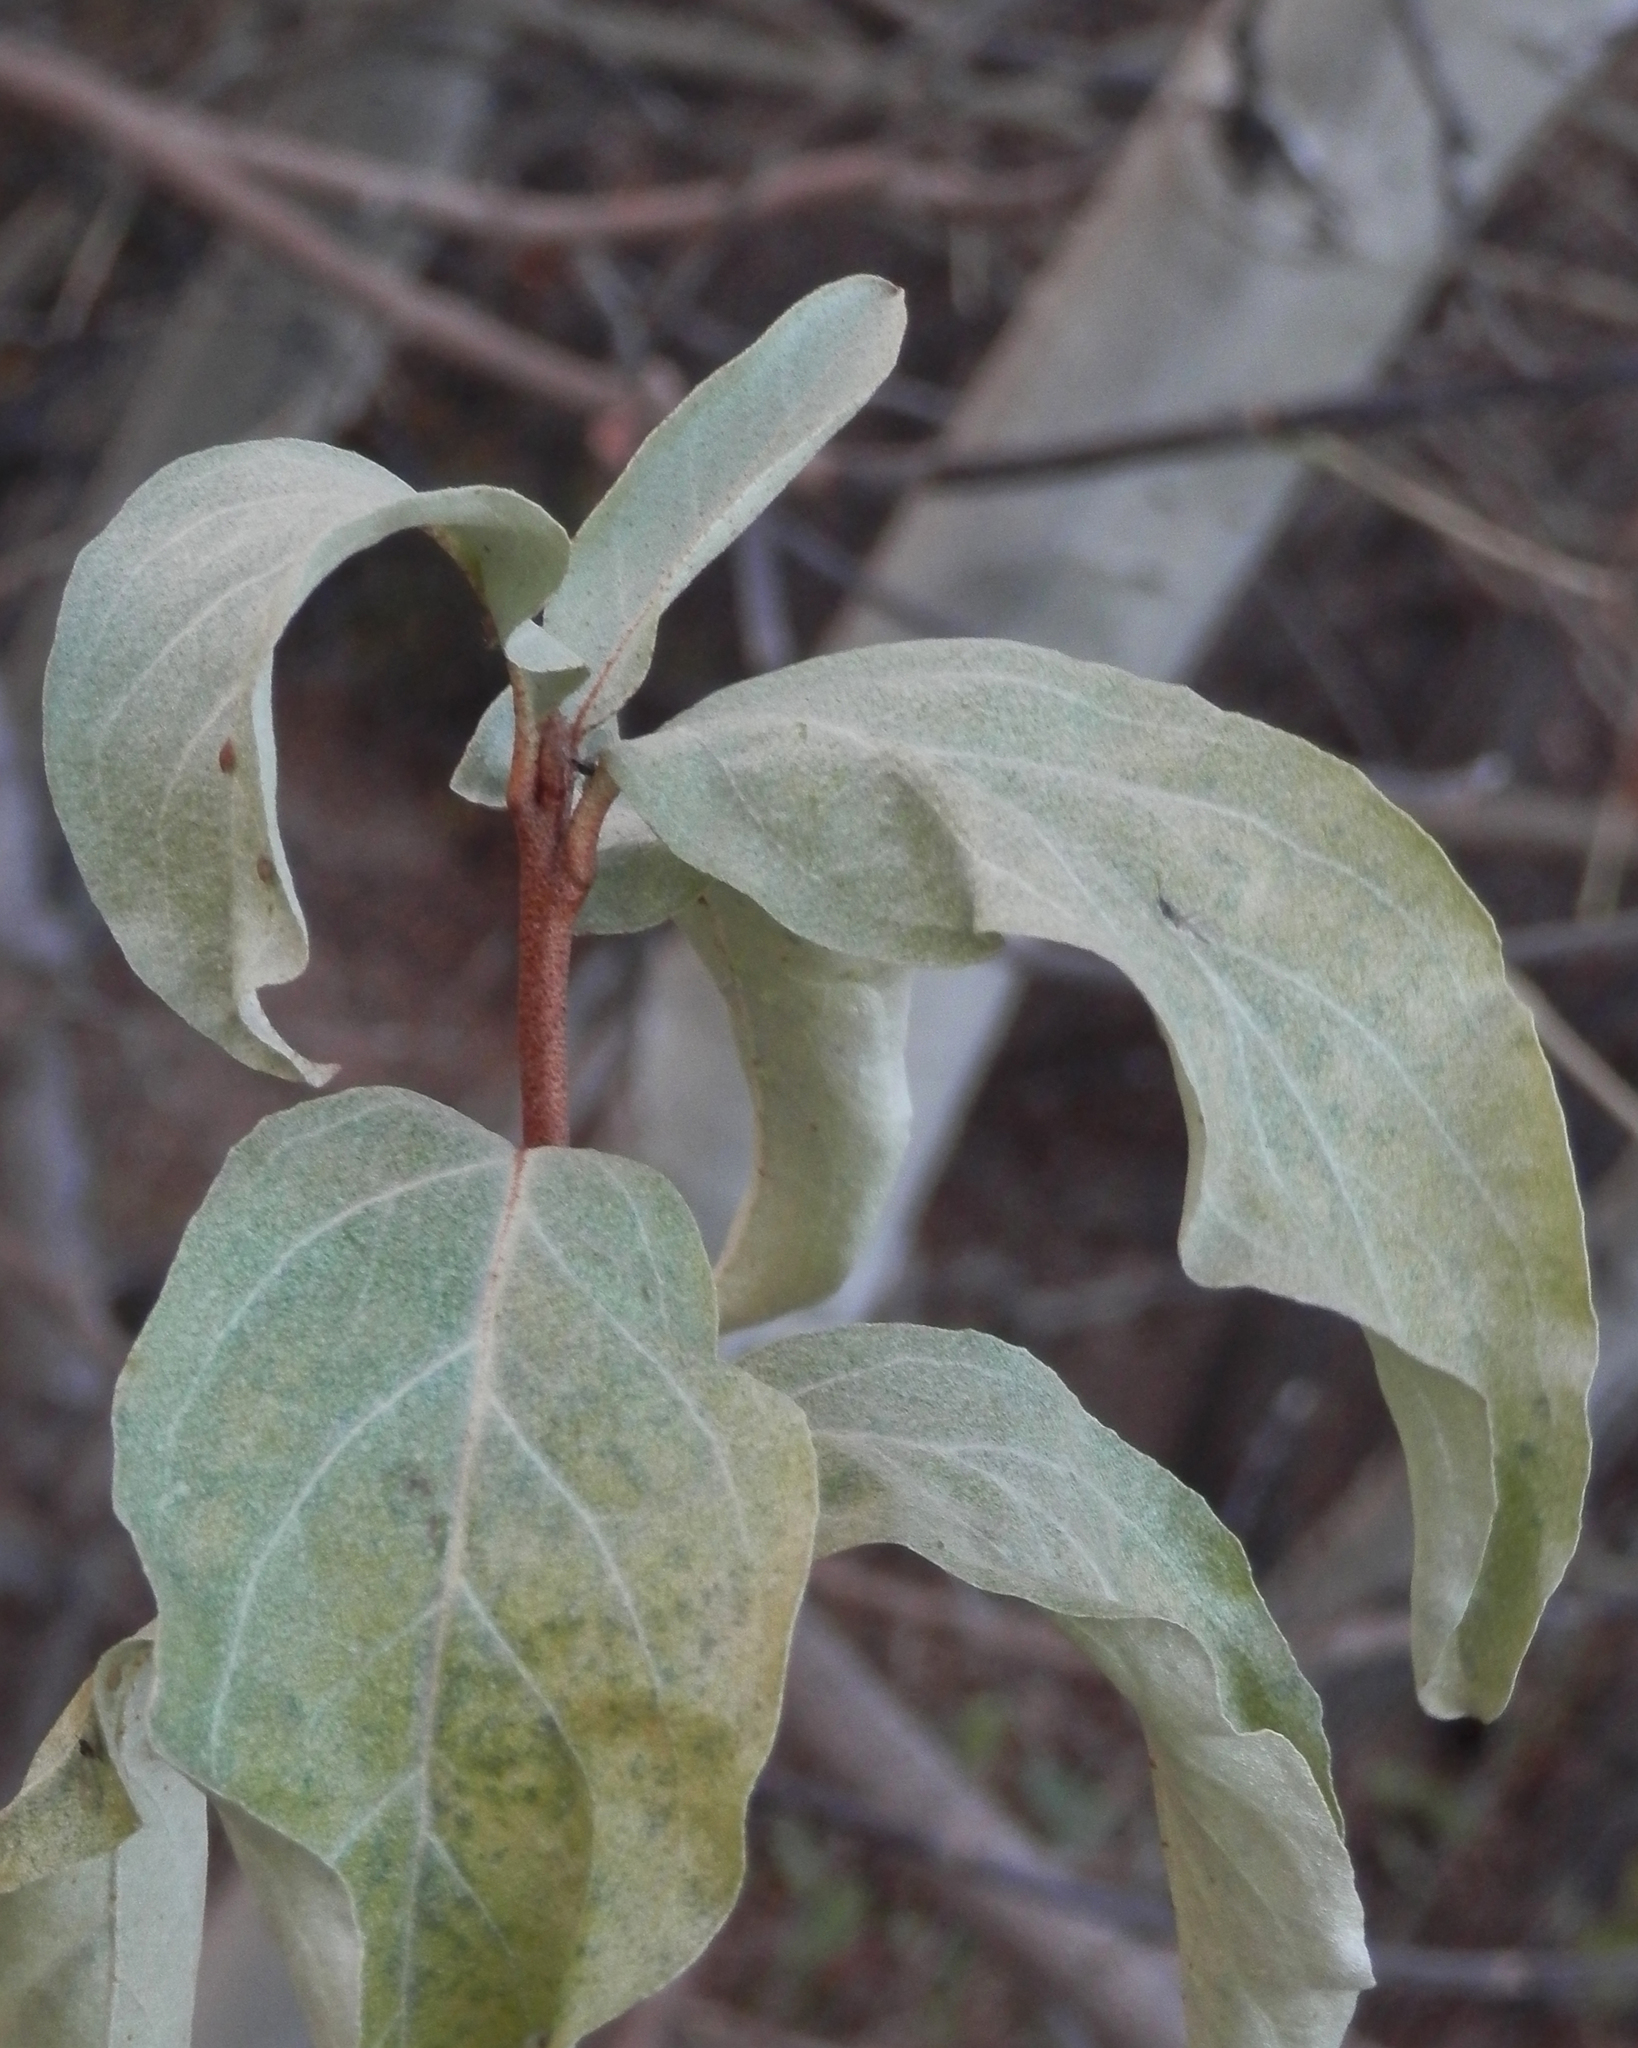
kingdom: Plantae
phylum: Tracheophyta
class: Magnoliopsida
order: Rosales
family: Elaeagnaceae
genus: Elaeagnus
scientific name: Elaeagnus commutata
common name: Silverberry
